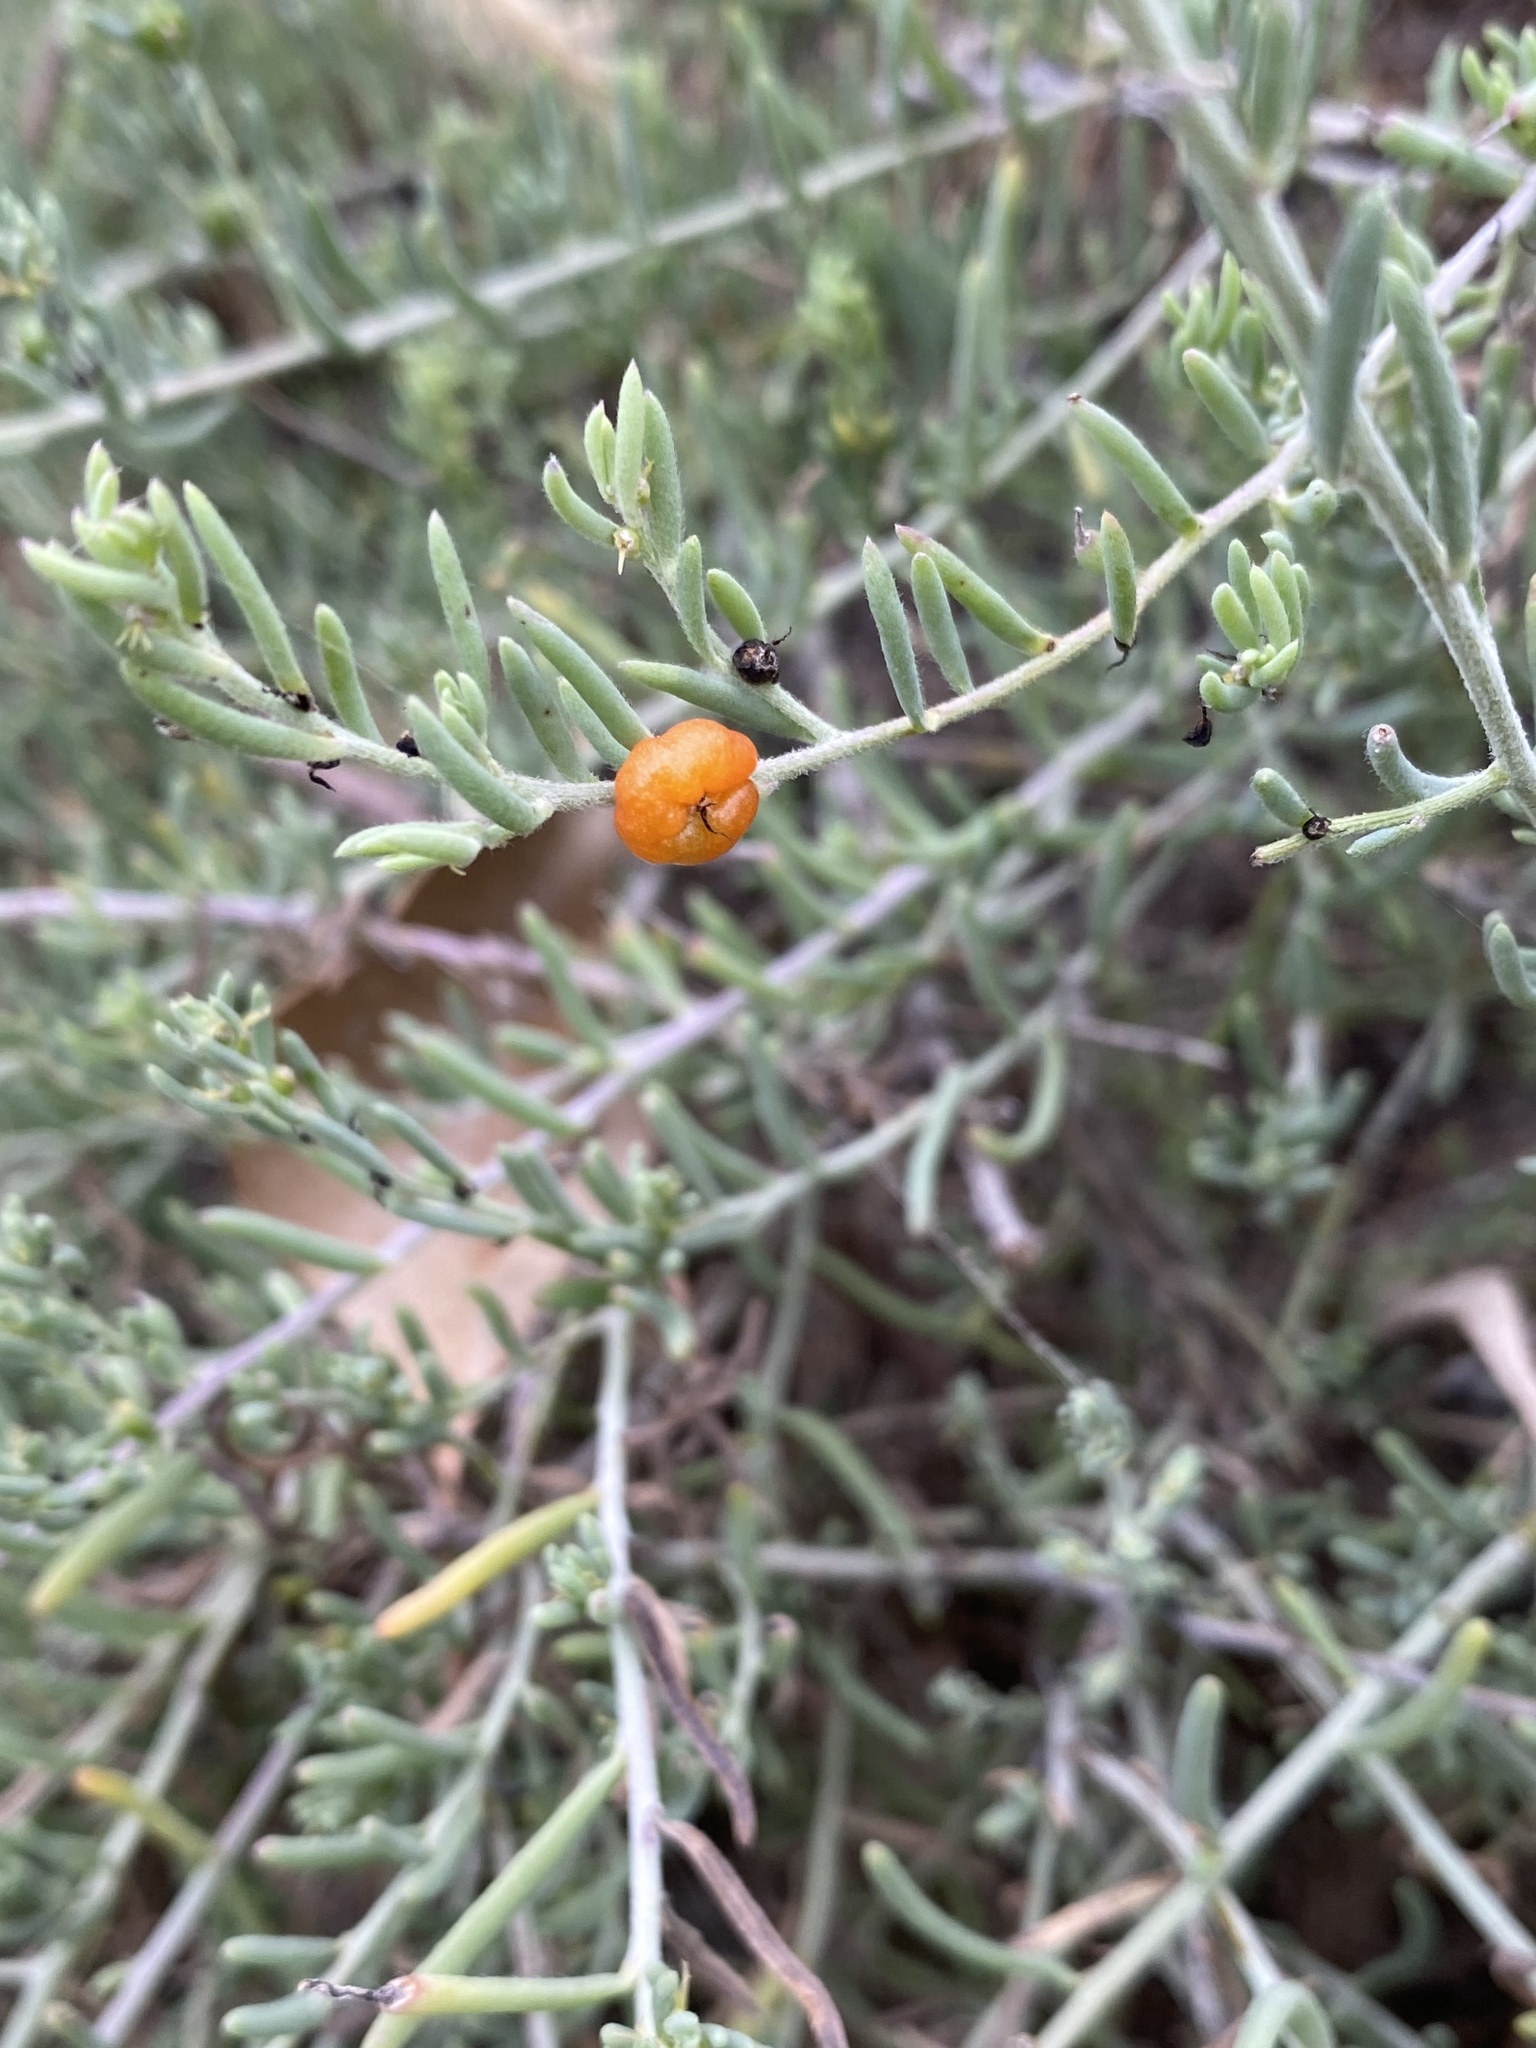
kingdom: Plantae
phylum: Tracheophyta
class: Magnoliopsida
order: Caryophyllales
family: Amaranthaceae
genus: Enchylaena
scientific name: Enchylaena tomentosa
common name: Ruby saltbush
